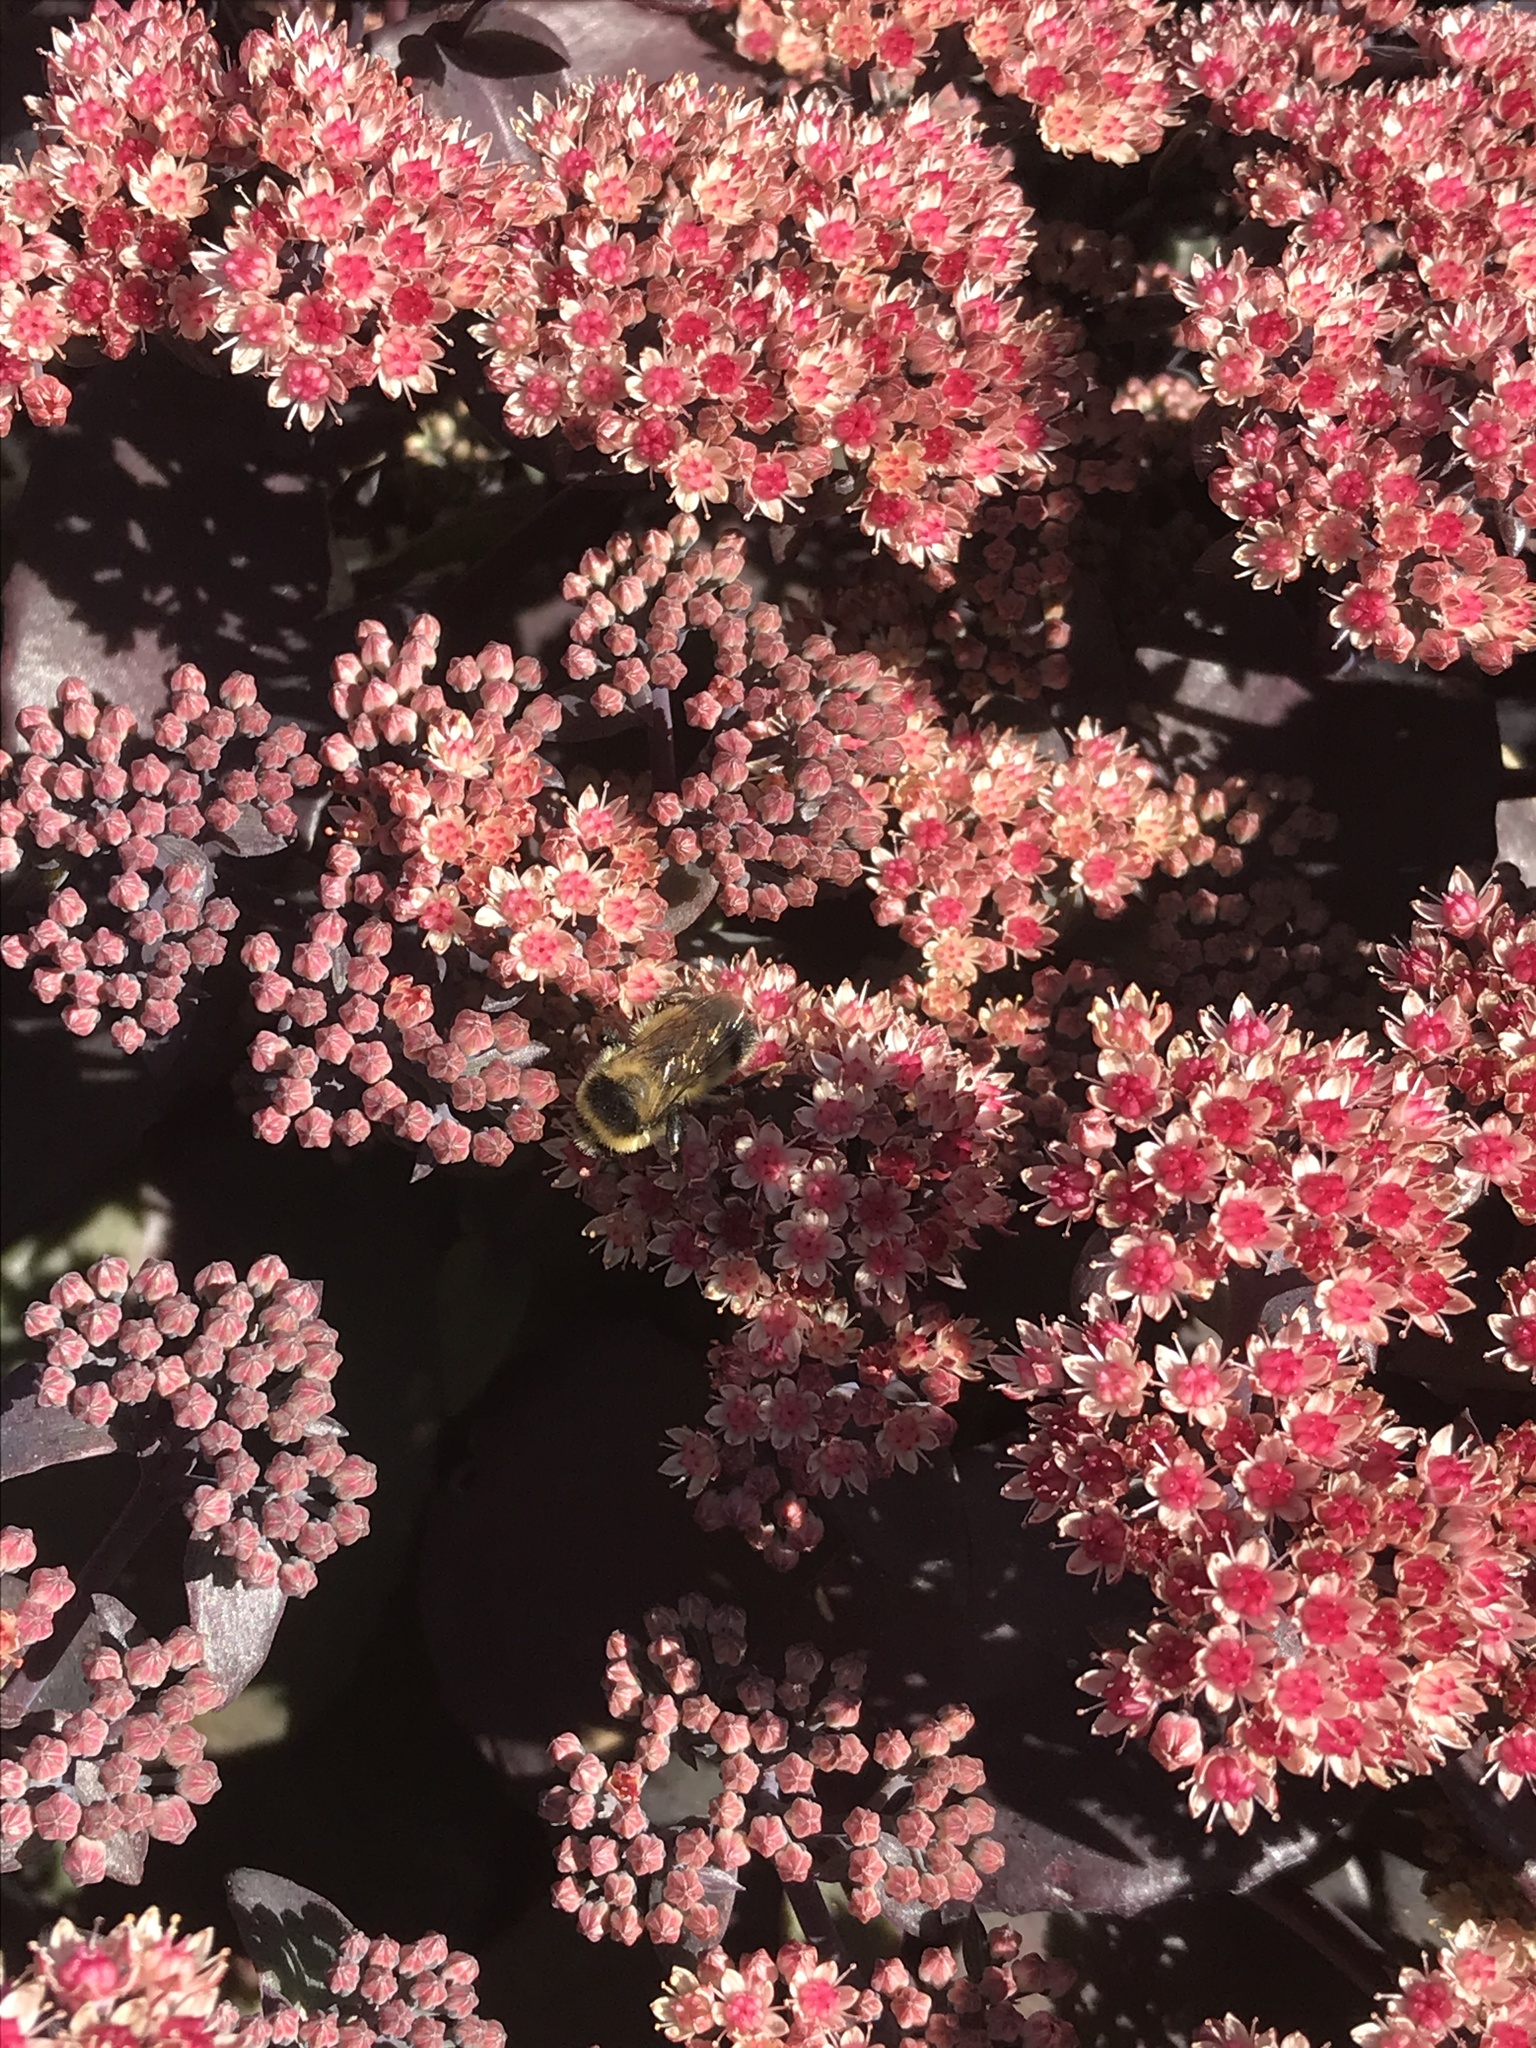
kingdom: Animalia
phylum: Arthropoda
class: Insecta
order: Hymenoptera
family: Apidae
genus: Bombus
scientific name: Bombus rufocinctus
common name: Red-belted bumble bee
